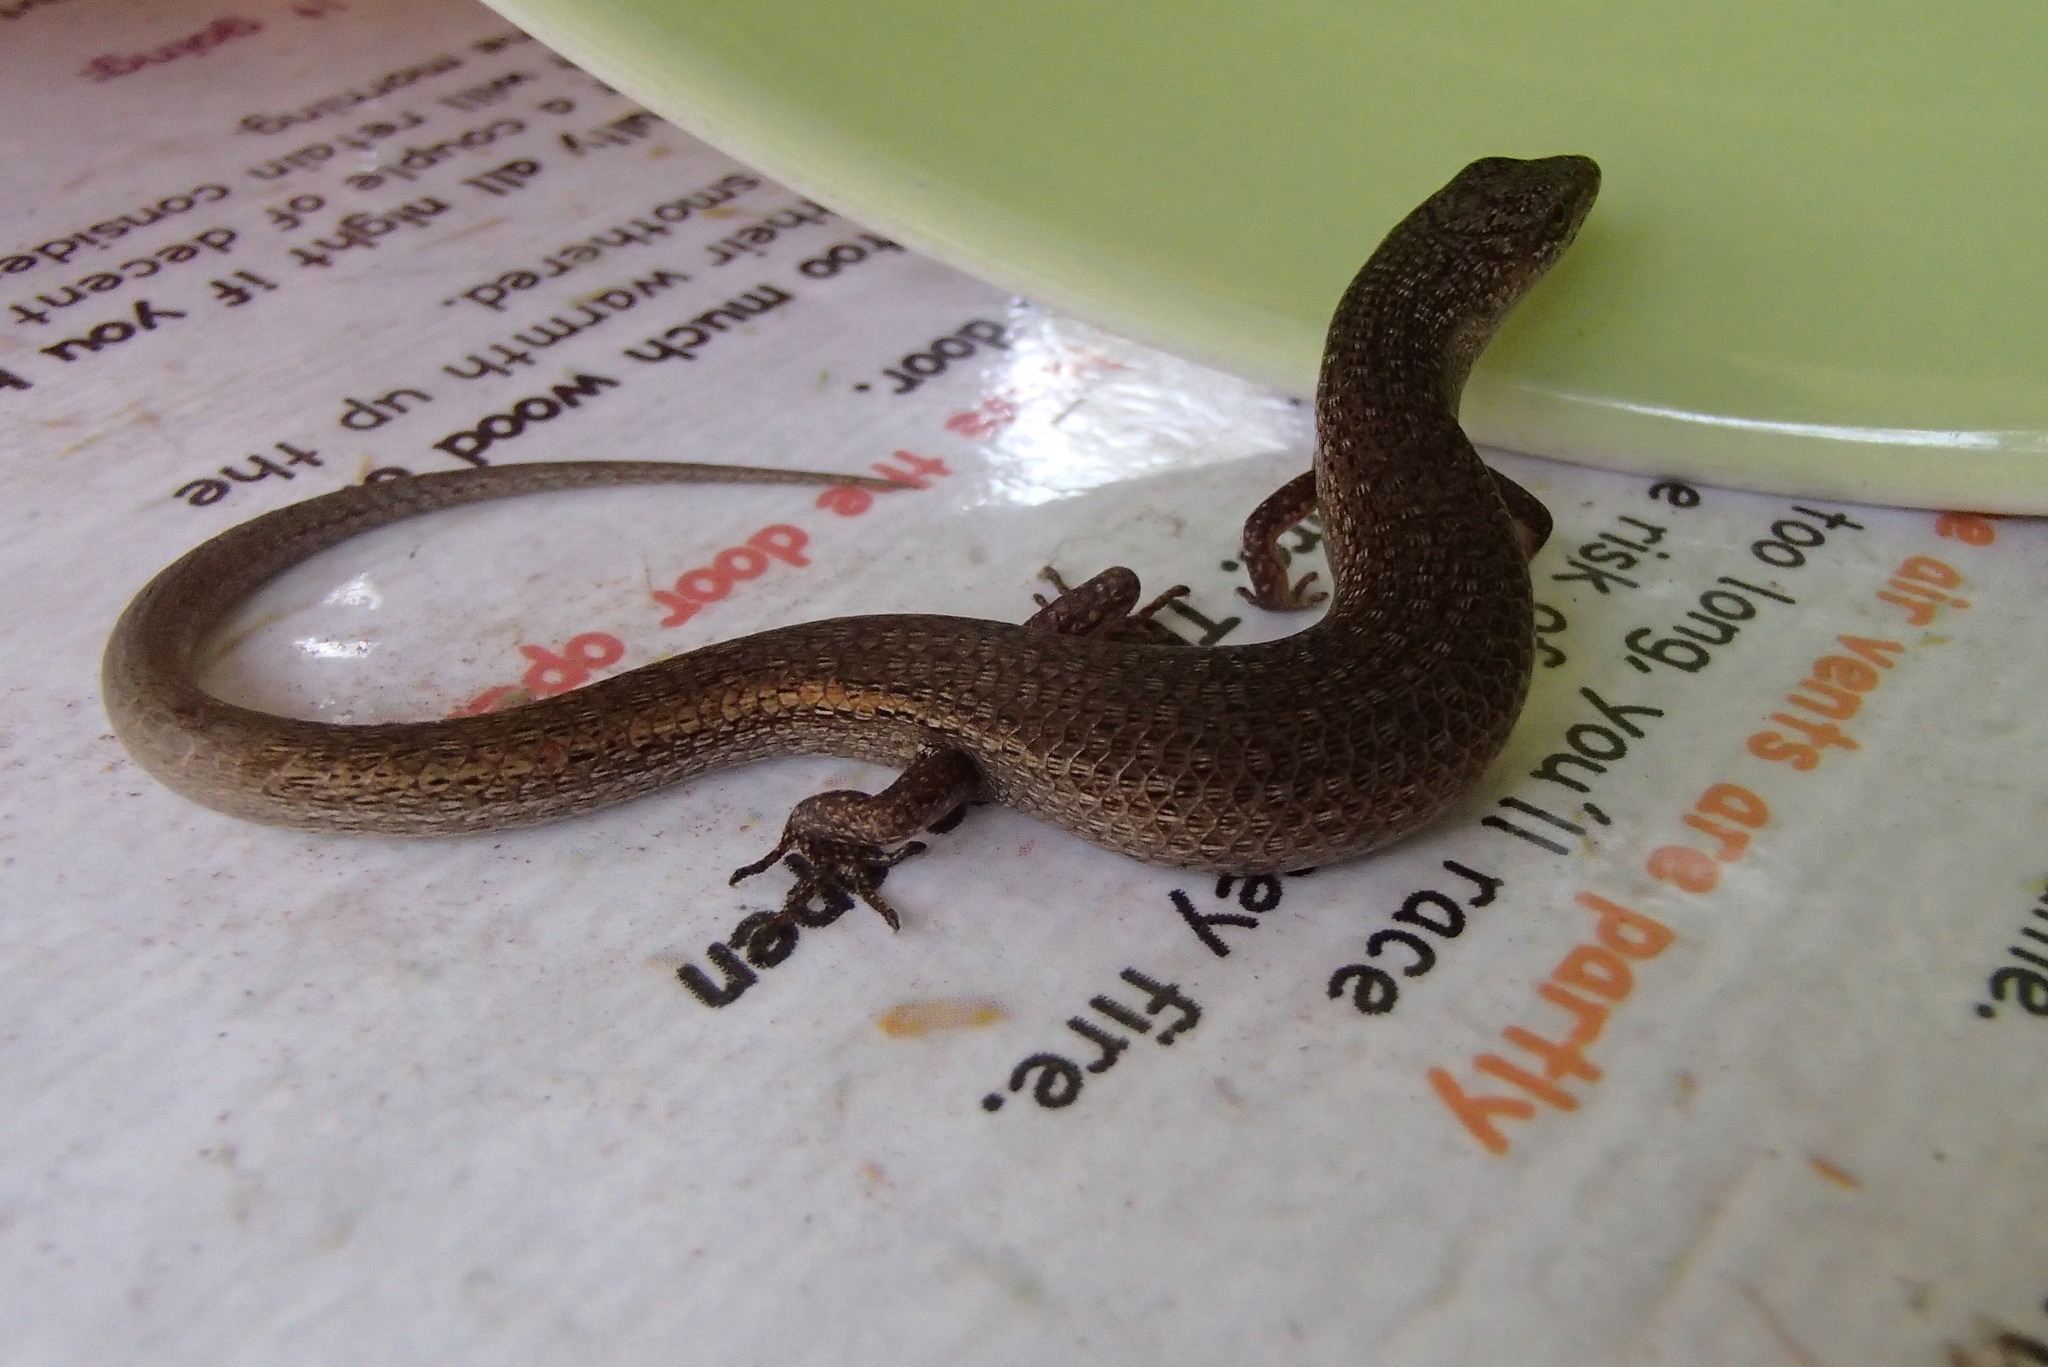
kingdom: Animalia
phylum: Chordata
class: Squamata
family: Scincidae
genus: Saproscincus
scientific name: Saproscincus mustelinus
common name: Southern weasel skink
